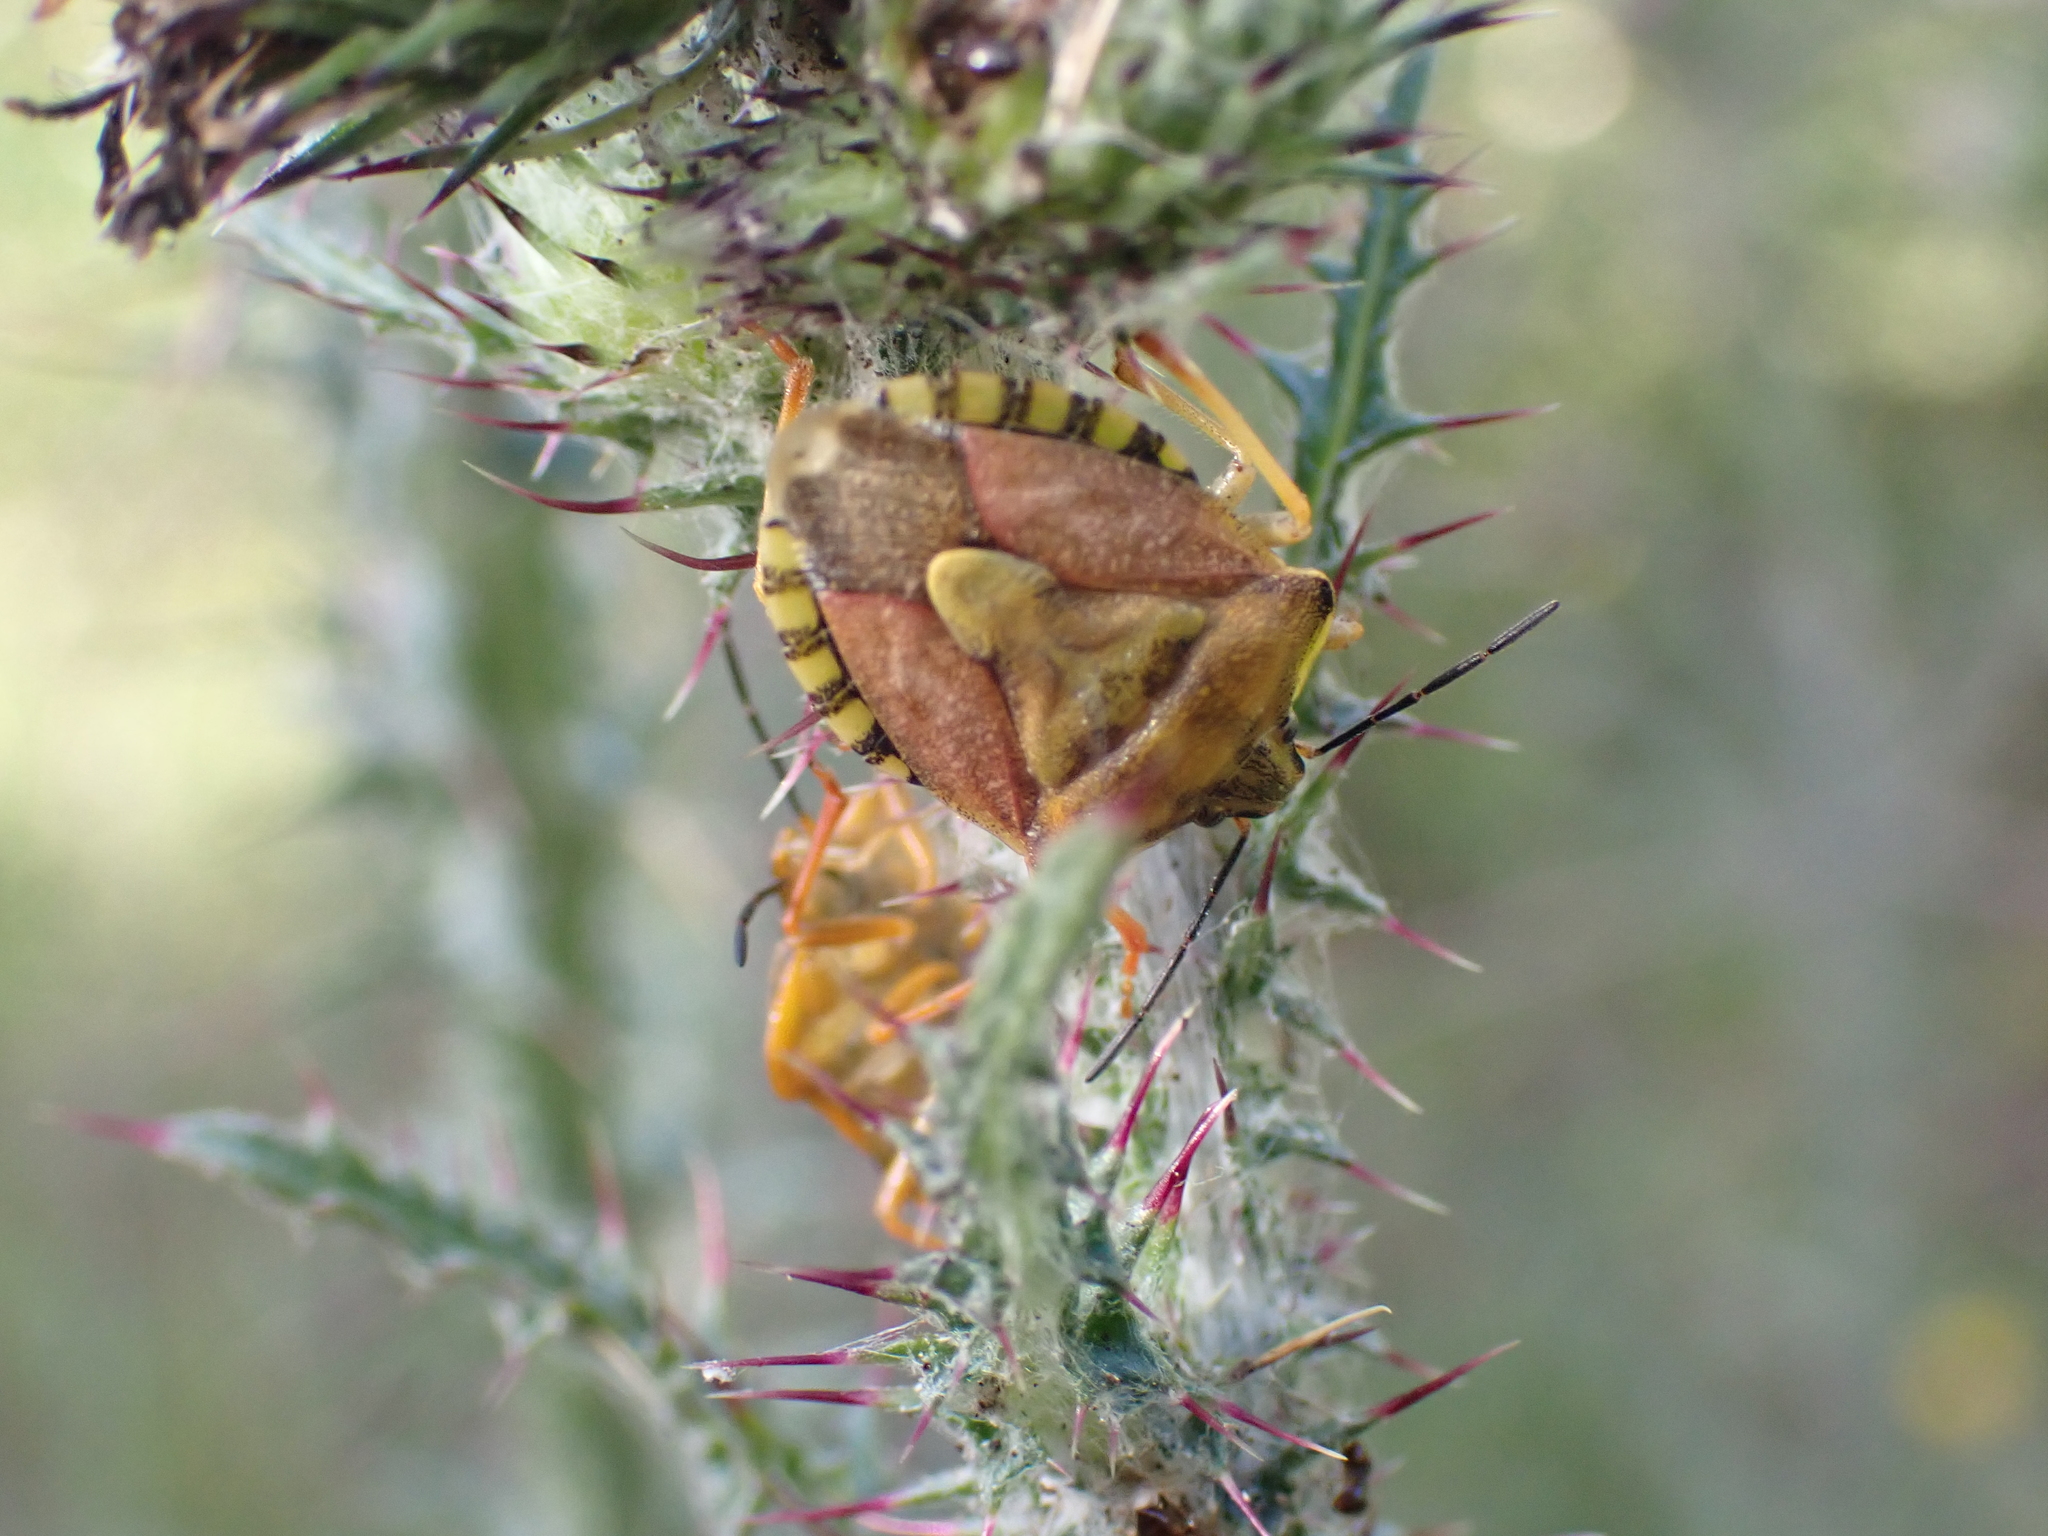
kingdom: Animalia
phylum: Arthropoda
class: Insecta
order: Hemiptera
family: Pentatomidae
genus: Carpocoris
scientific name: Carpocoris purpureipennis
